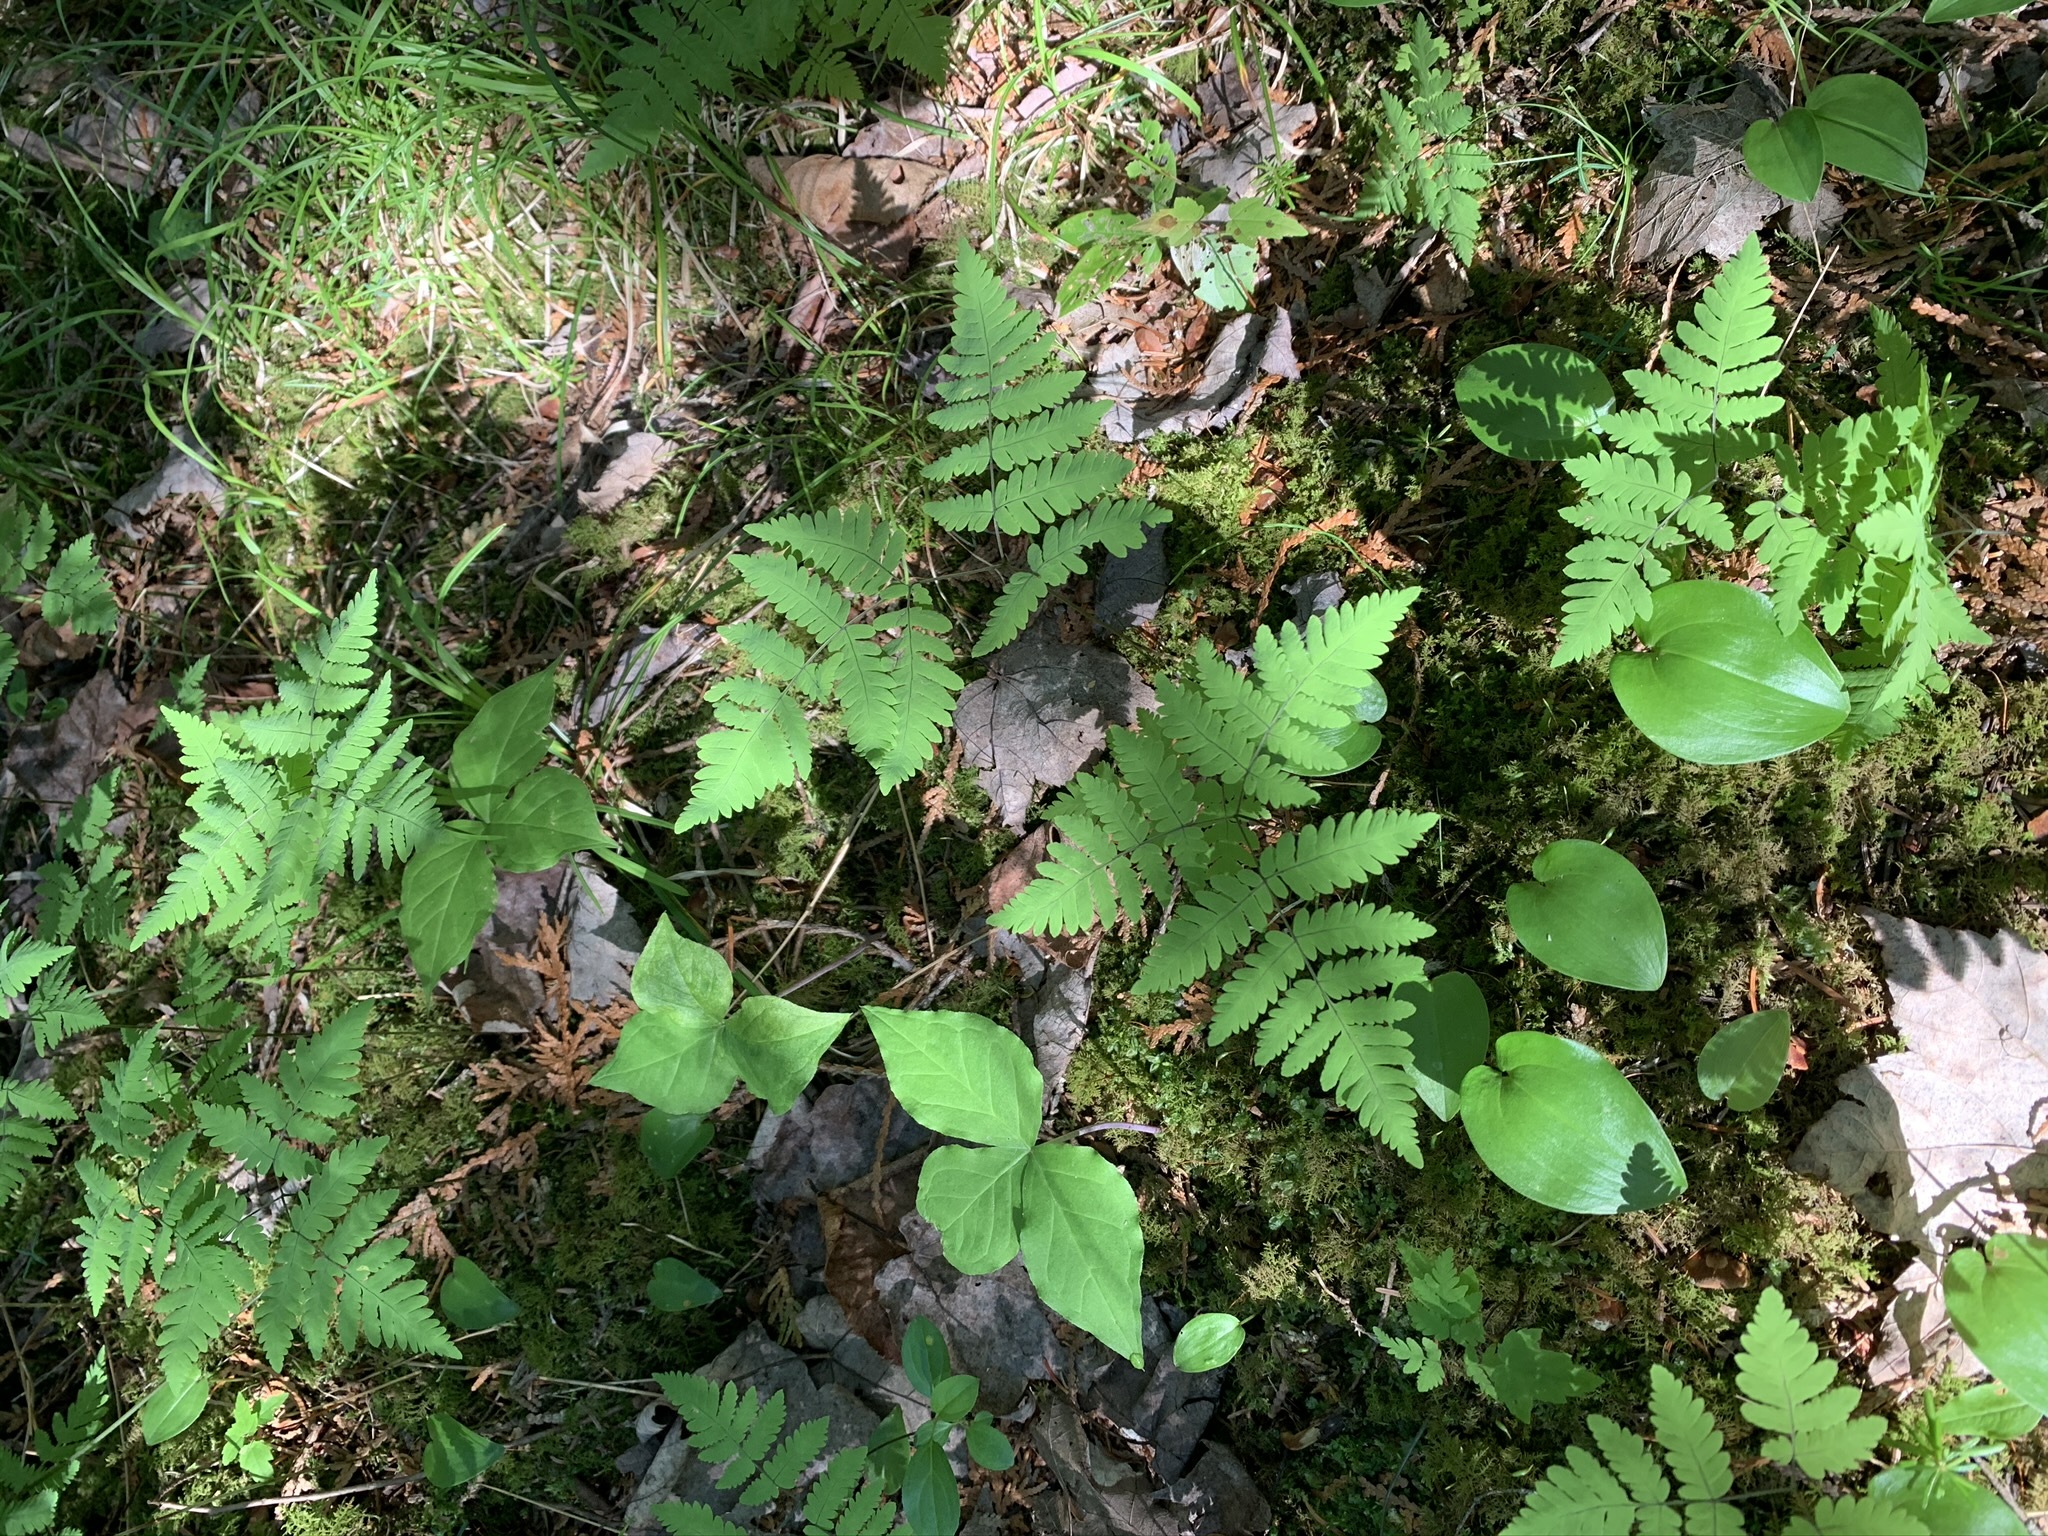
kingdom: Plantae
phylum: Tracheophyta
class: Polypodiopsida
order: Polypodiales
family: Cystopteridaceae
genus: Gymnocarpium
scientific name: Gymnocarpium dryopteris
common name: Oak fern
